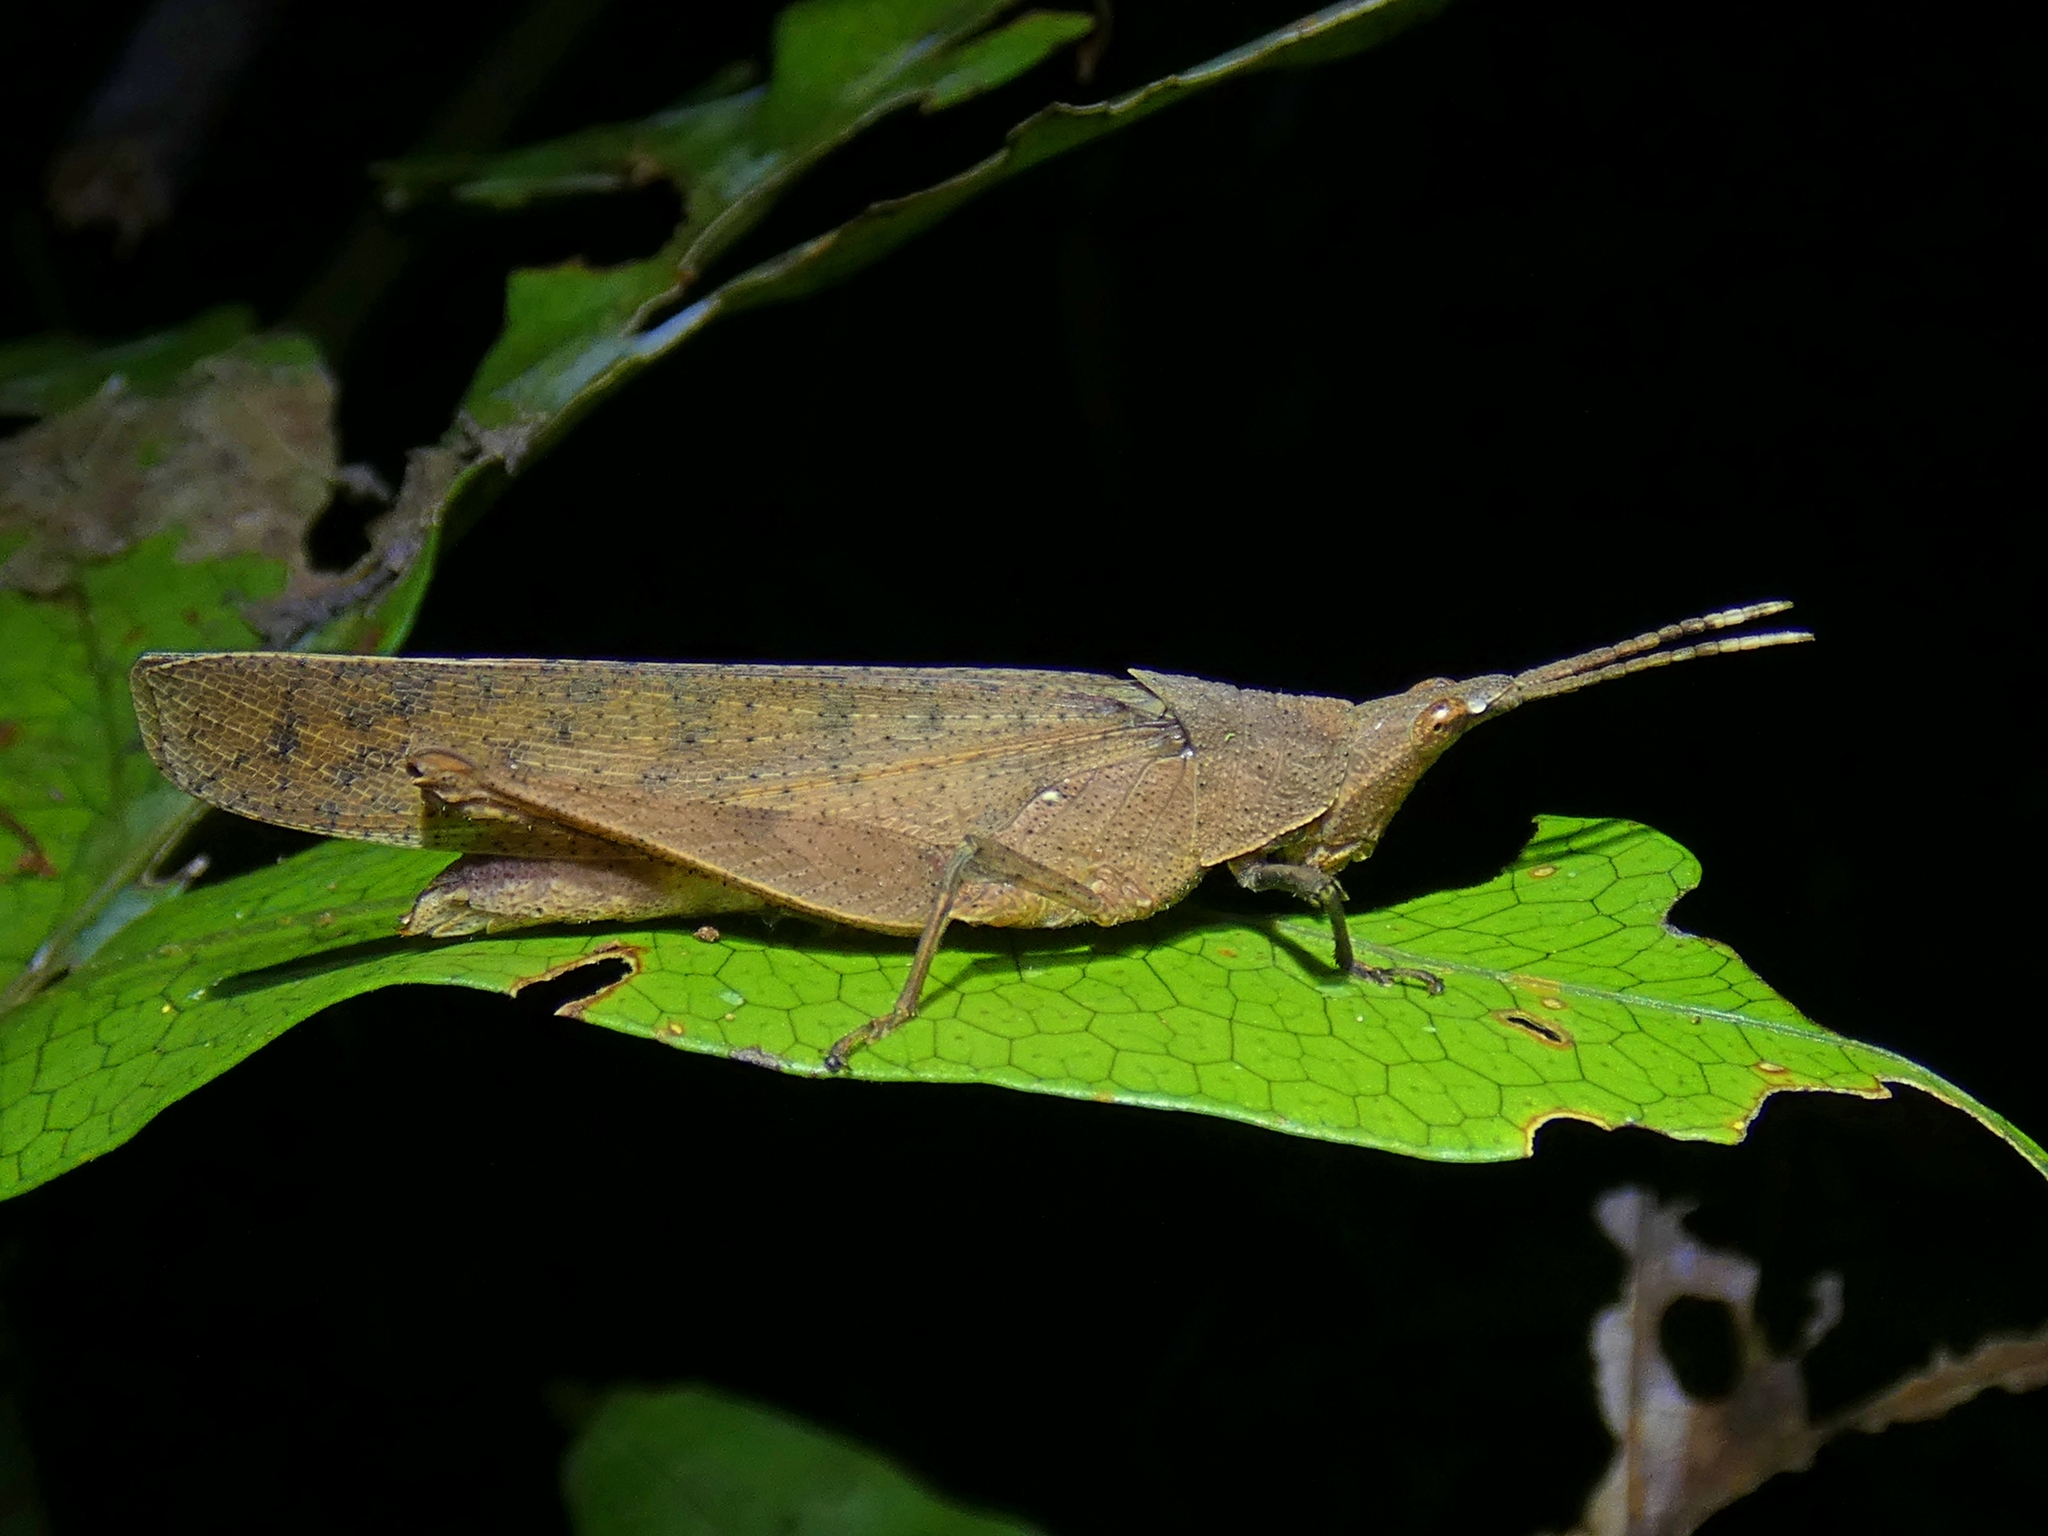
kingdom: Animalia
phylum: Arthropoda
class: Insecta
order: Orthoptera
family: Pyrgomorphidae
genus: Desmoptera
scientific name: Desmoptera truncatipennis
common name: Large forest pyrgomorph
